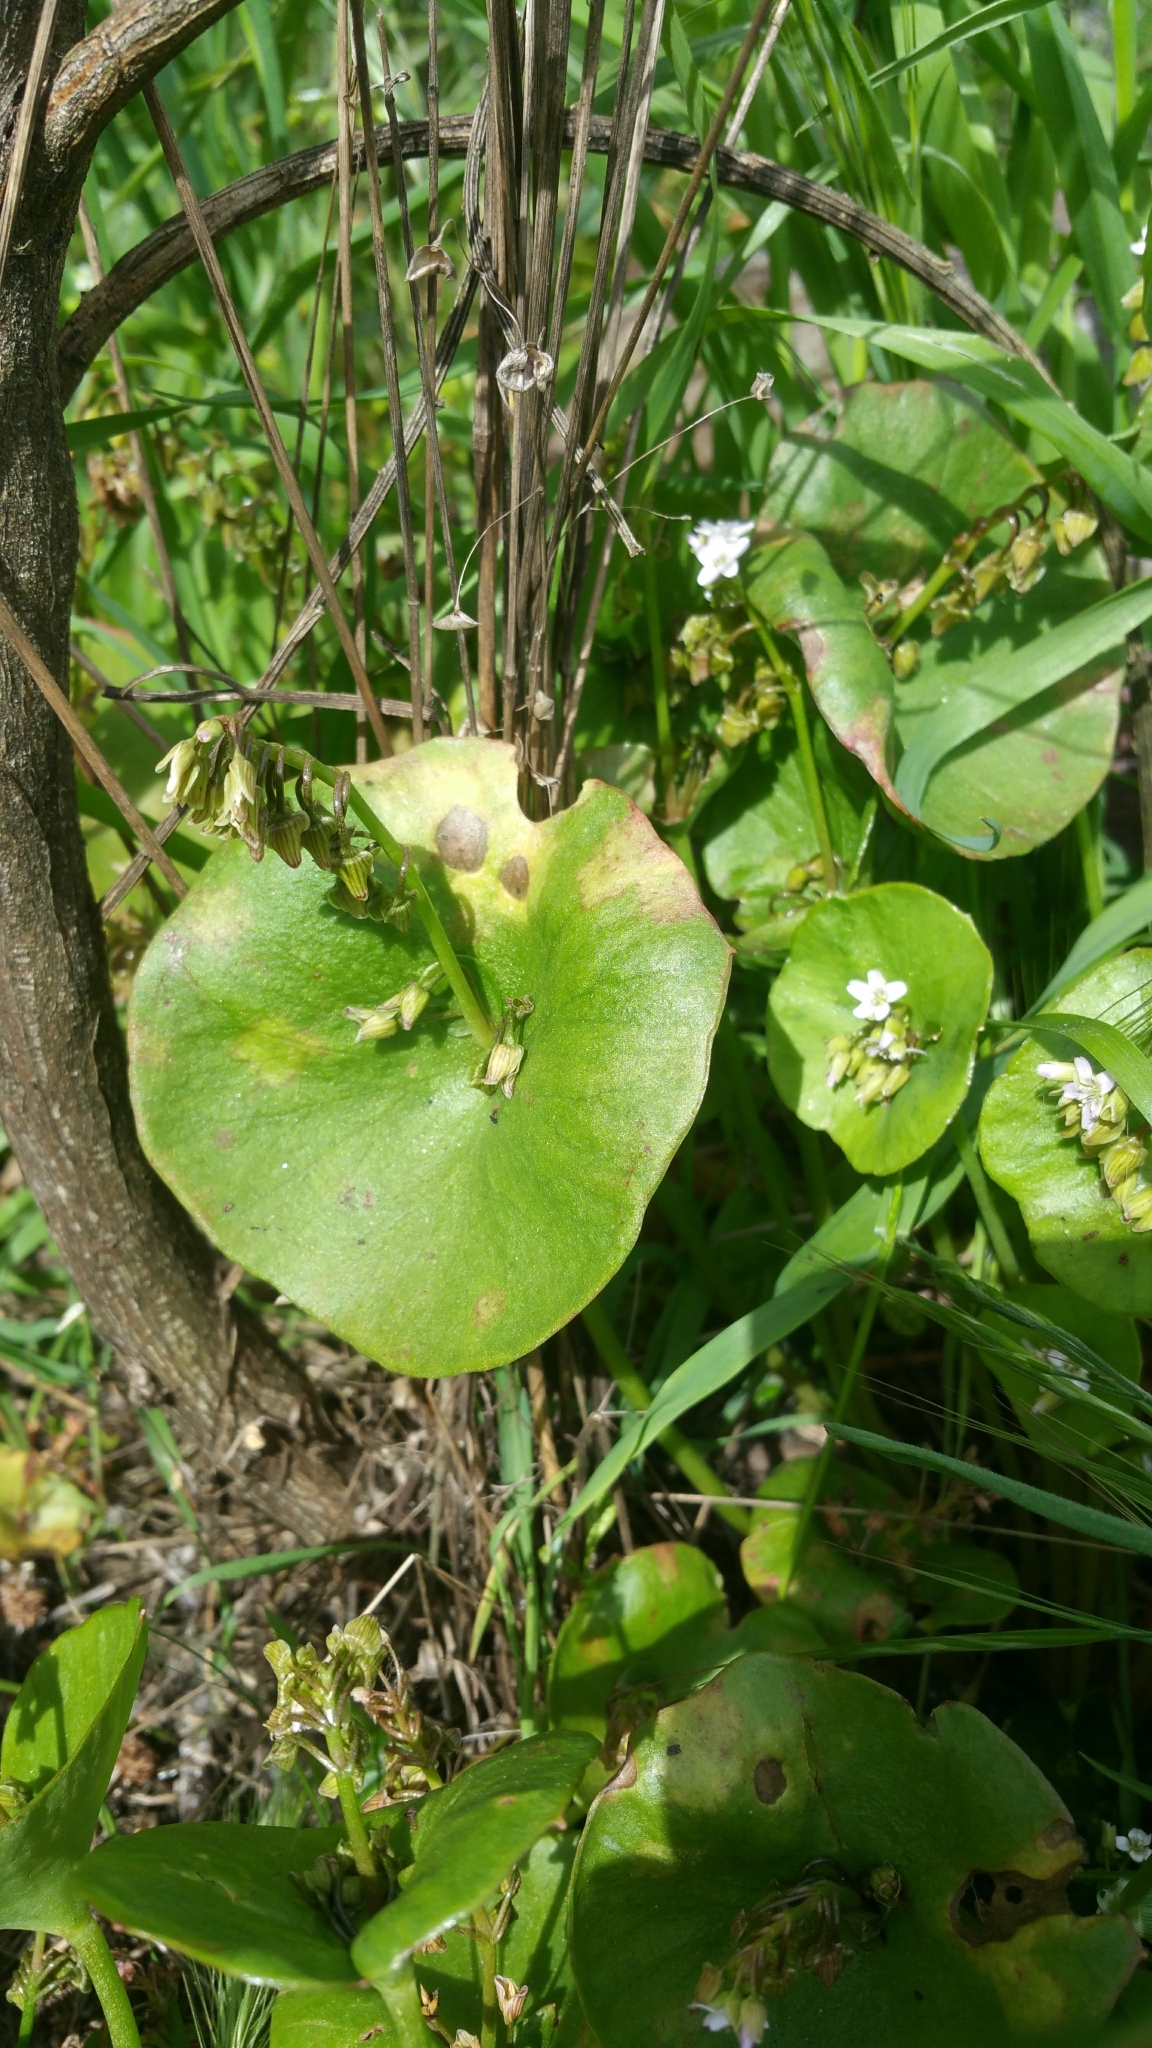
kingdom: Plantae
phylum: Tracheophyta
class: Magnoliopsida
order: Caryophyllales
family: Montiaceae
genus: Claytonia
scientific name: Claytonia perfoliata
